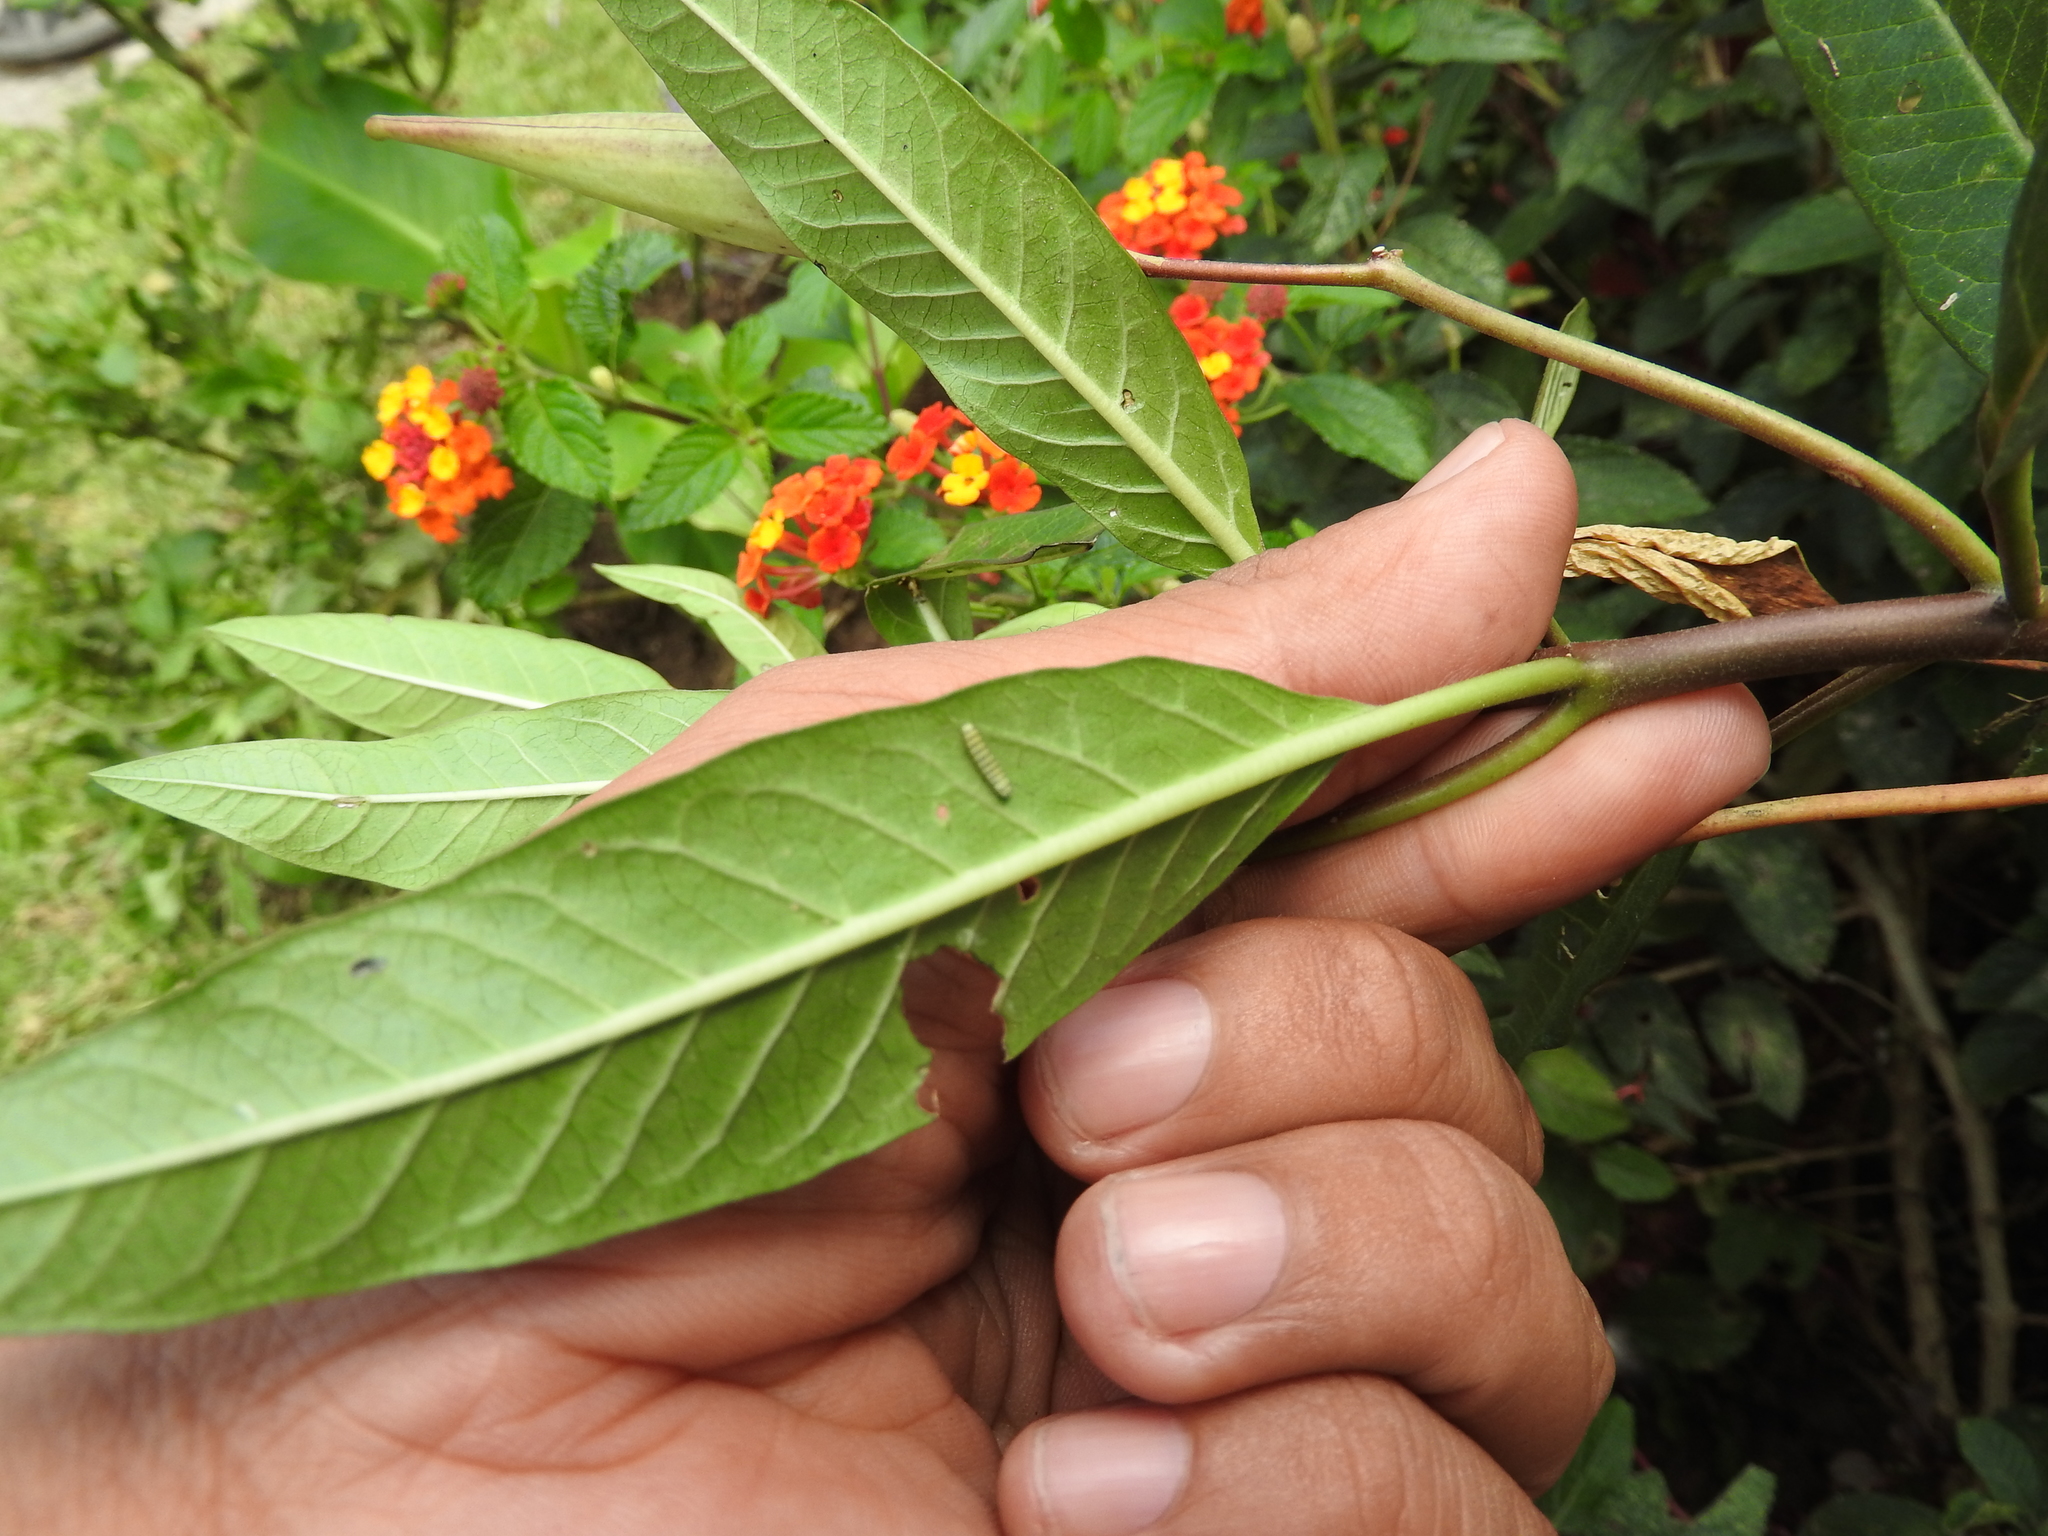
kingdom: Animalia
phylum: Arthropoda
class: Insecta
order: Lepidoptera
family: Nymphalidae
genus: Danaus
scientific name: Danaus plexippus
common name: Monarch
